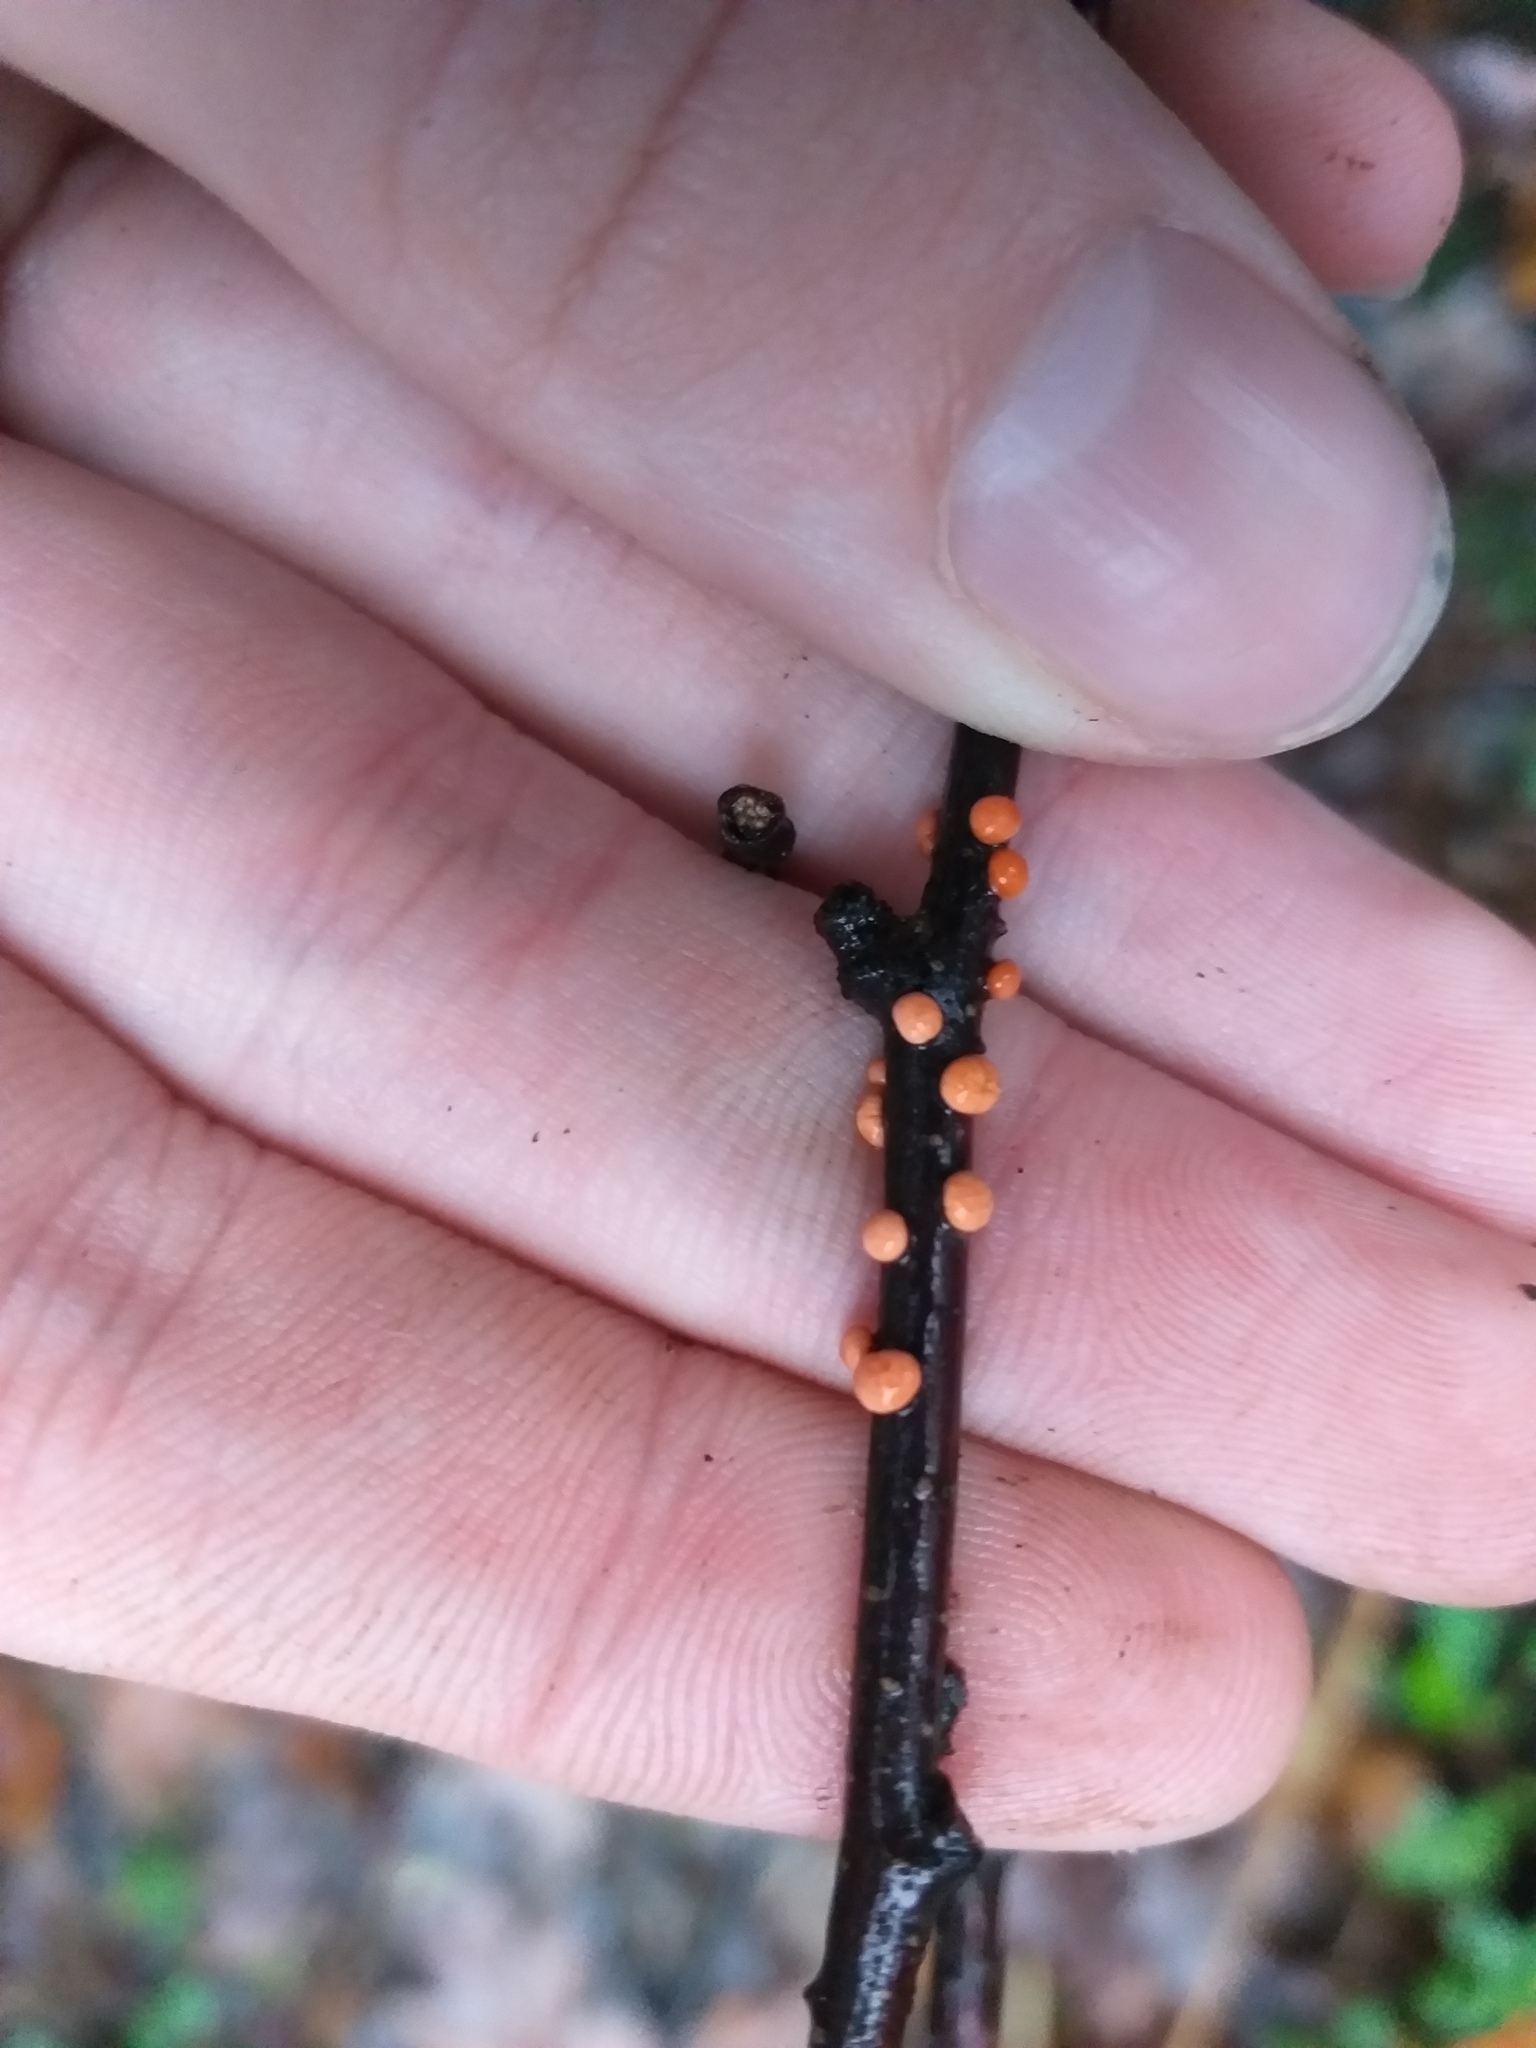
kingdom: Fungi
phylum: Ascomycota
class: Sordariomycetes
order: Hypocreales
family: Nectriaceae
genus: Nectria
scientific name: Nectria cinnabarina
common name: Coral spot
